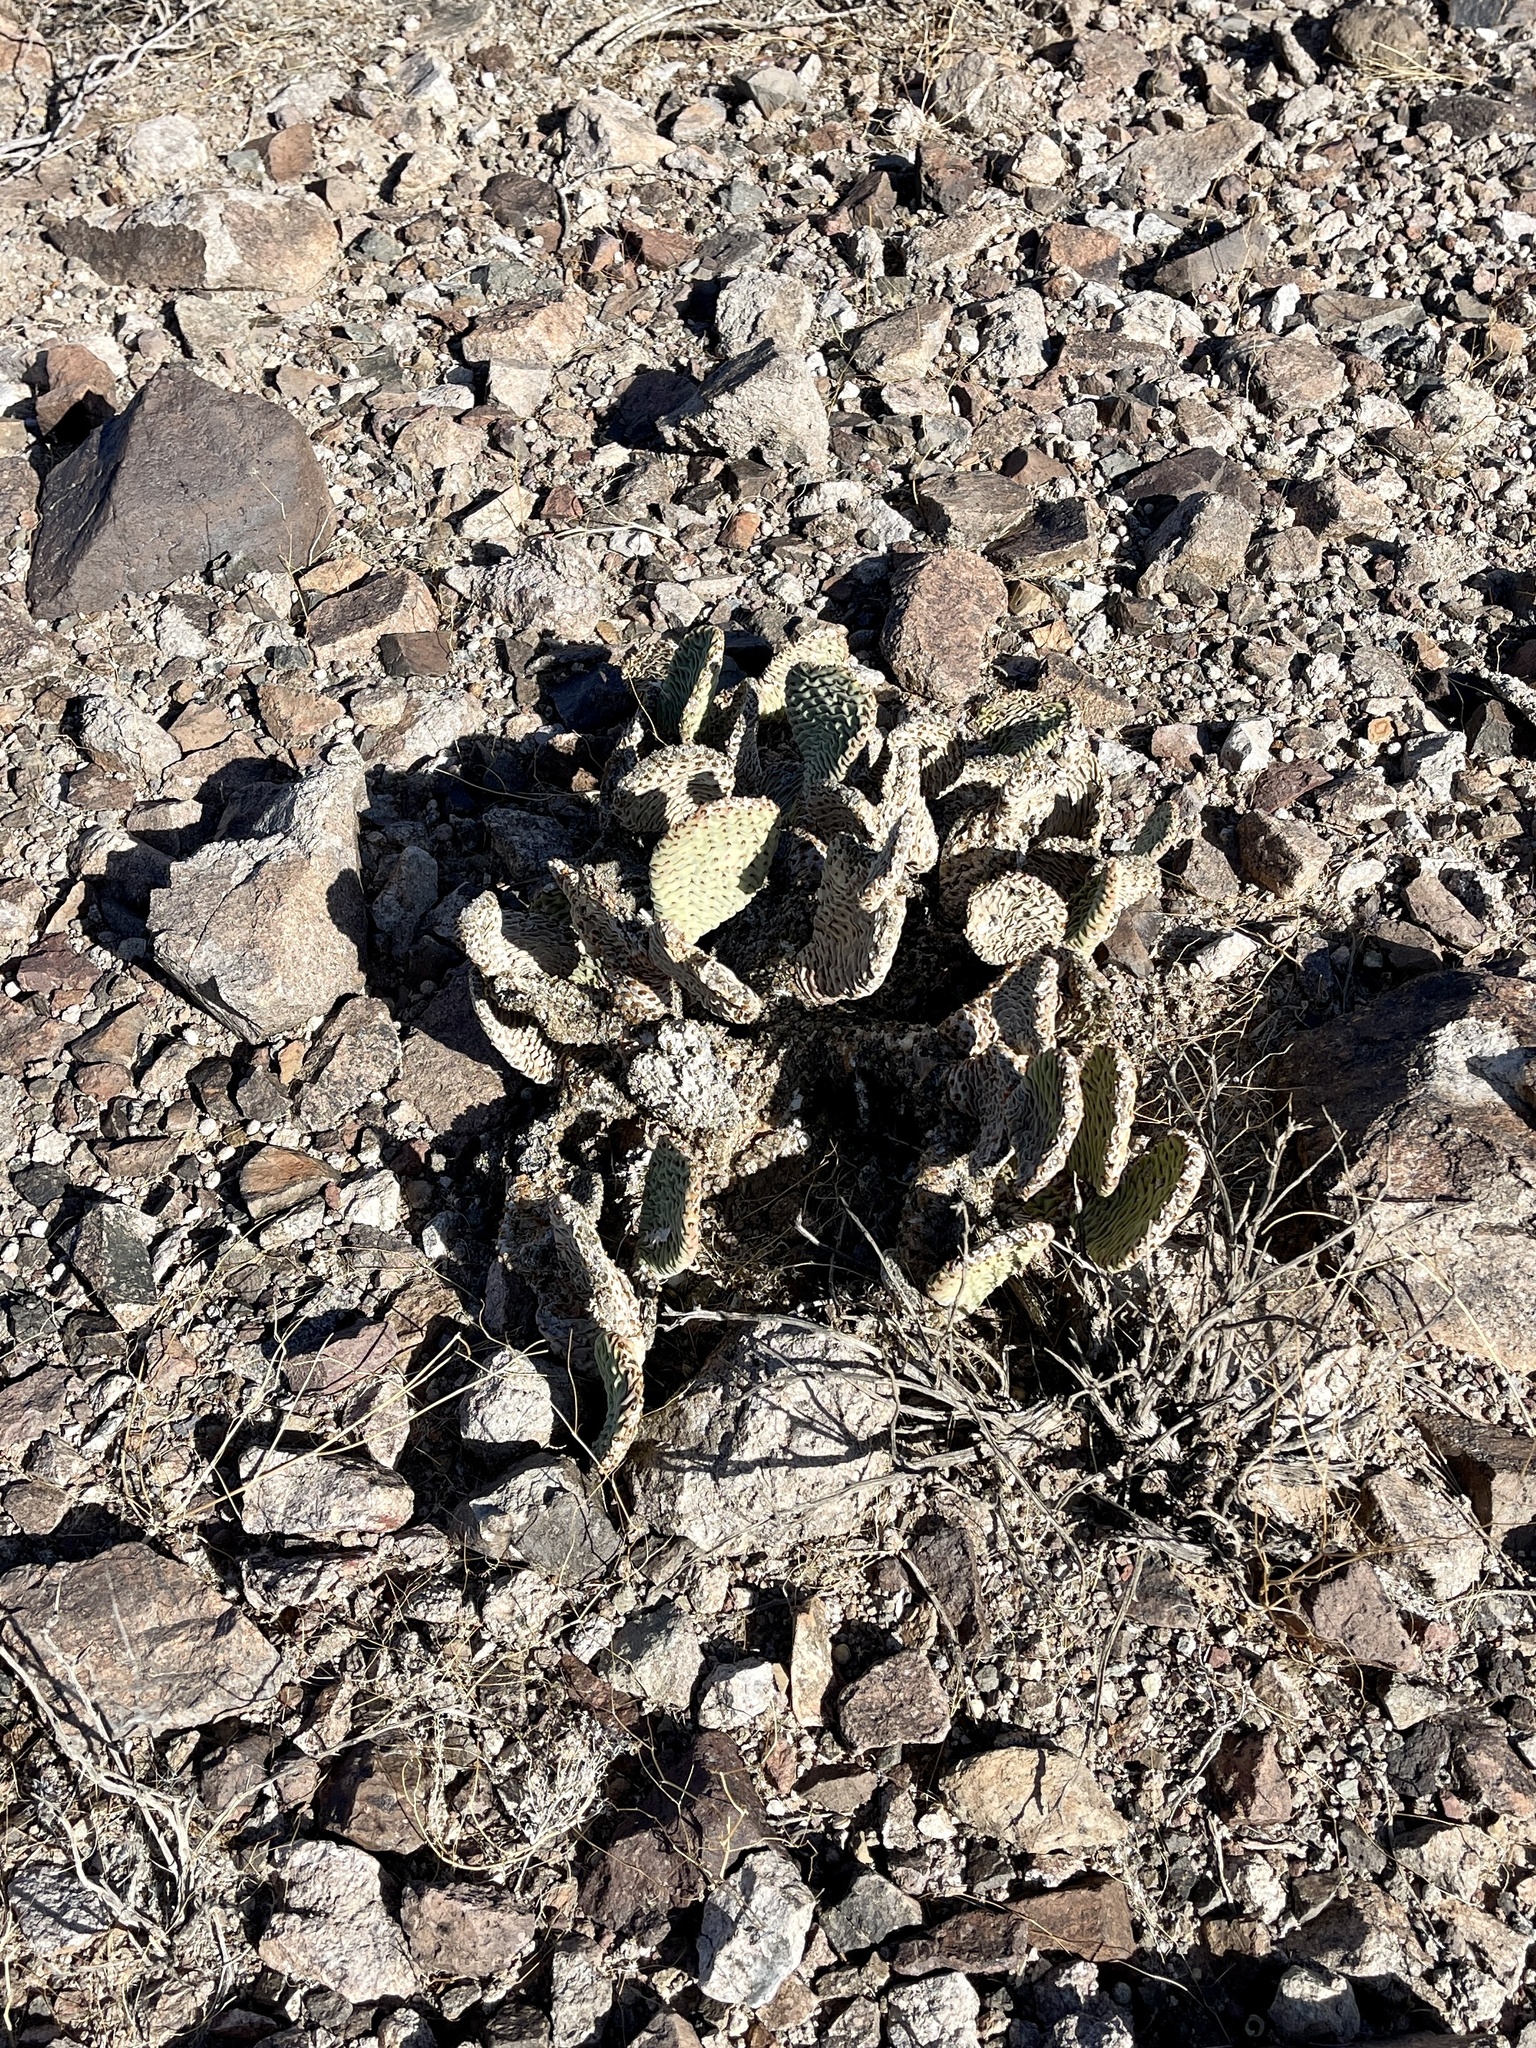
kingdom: Plantae
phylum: Tracheophyta
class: Magnoliopsida
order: Caryophyllales
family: Cactaceae
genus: Opuntia
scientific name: Opuntia basilaris
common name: Beavertail prickly-pear
